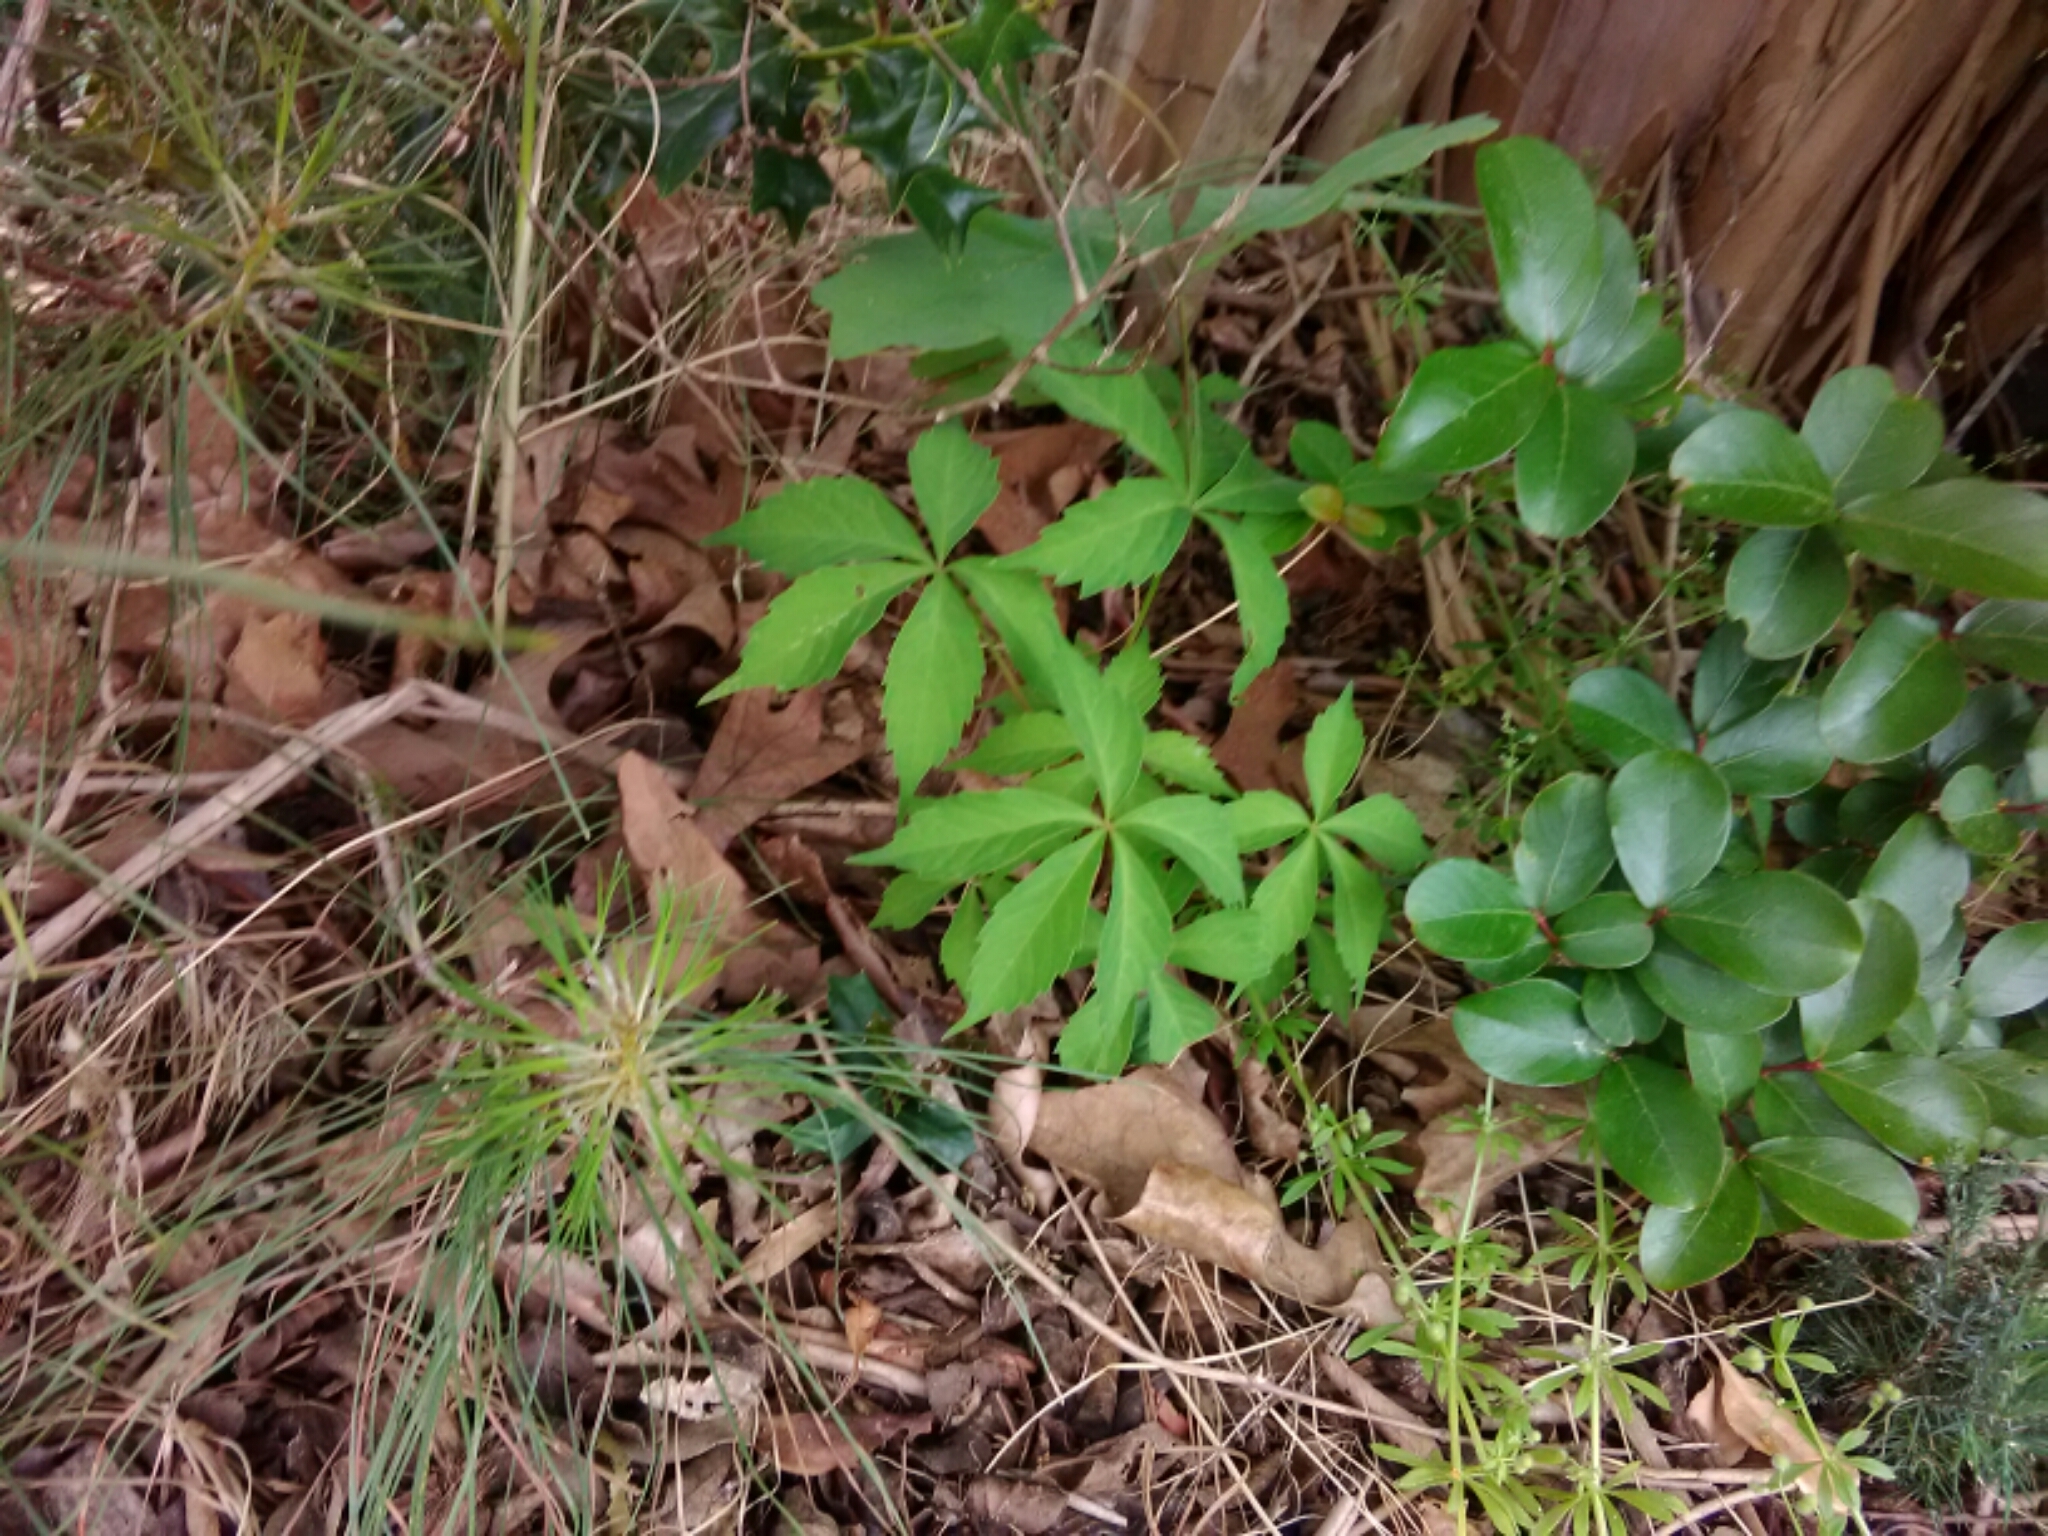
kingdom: Plantae
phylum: Tracheophyta
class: Magnoliopsida
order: Vitales
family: Vitaceae
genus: Parthenocissus
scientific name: Parthenocissus quinquefolia
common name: Virginia-creeper
